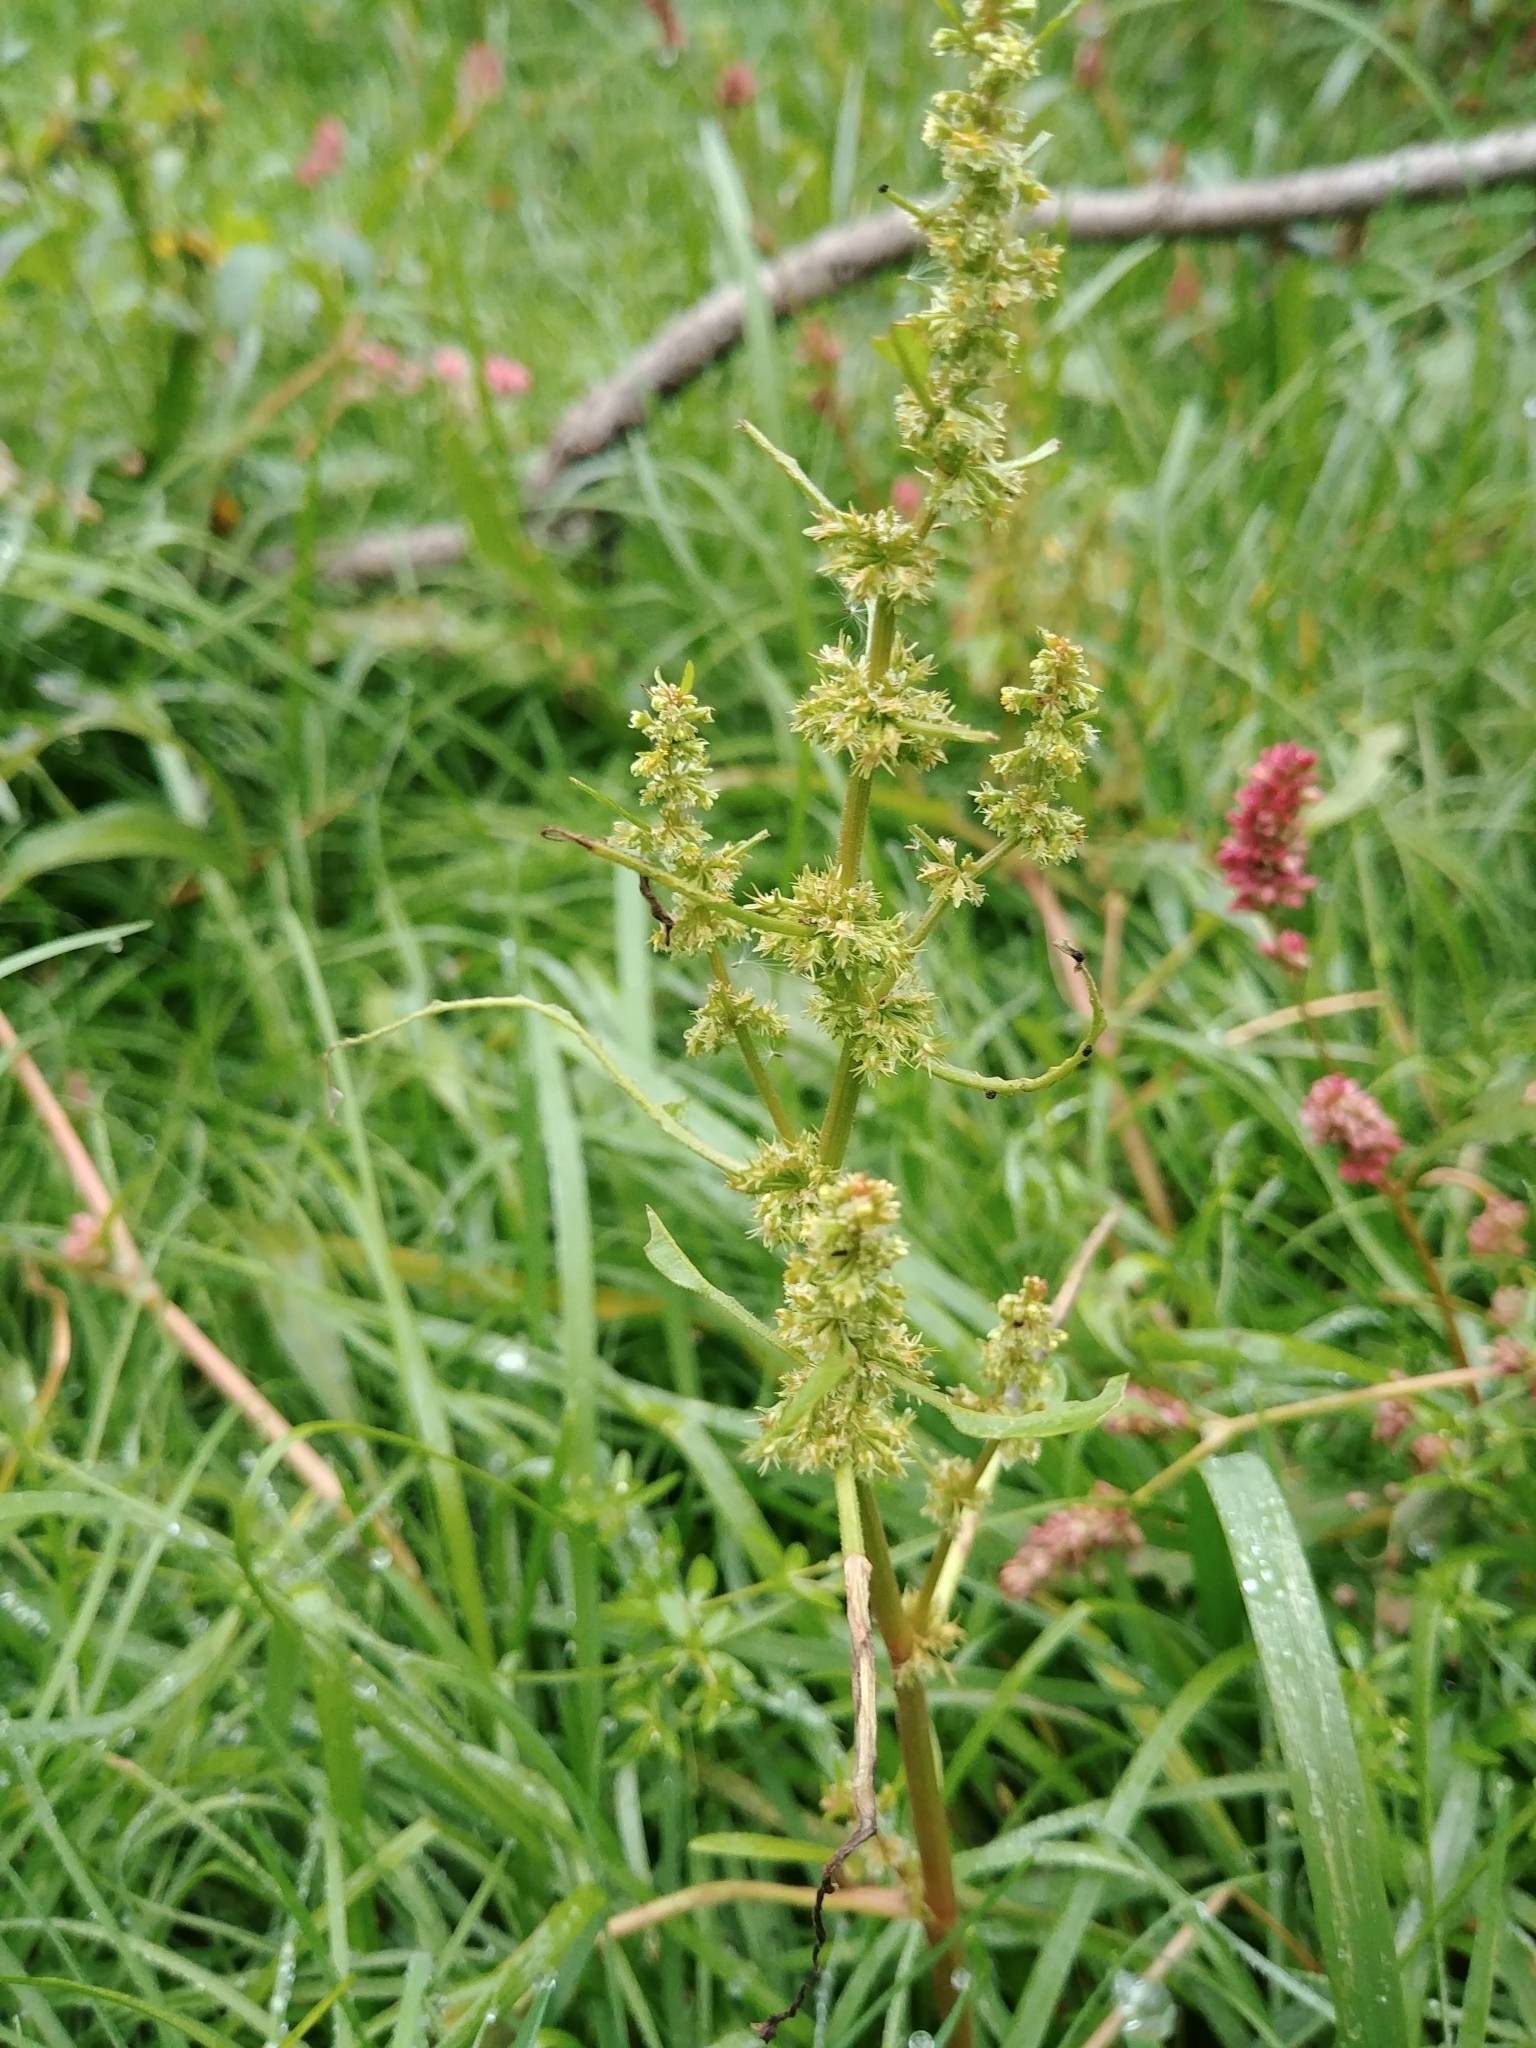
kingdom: Plantae
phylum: Tracheophyta
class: Magnoliopsida
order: Caryophyllales
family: Polygonaceae
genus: Rumex
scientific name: Rumex fueginus
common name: American golden dock
